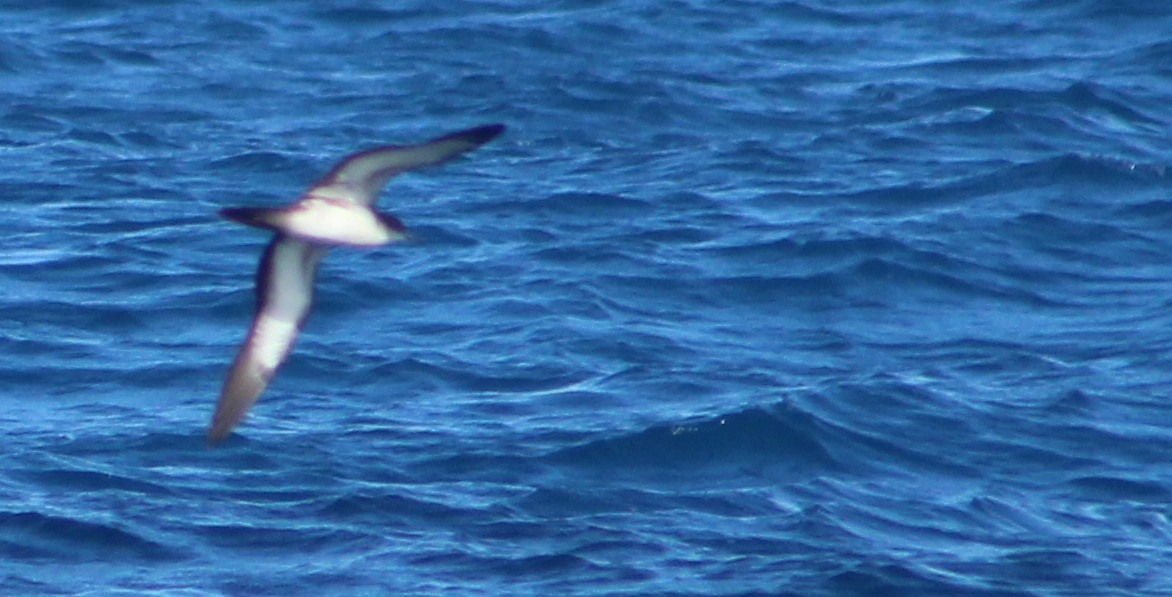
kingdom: Animalia
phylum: Chordata
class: Aves
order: Procellariiformes
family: Procellariidae
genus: Puffinus
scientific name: Puffinus pacificus
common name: Wedge-tailed shearwater
